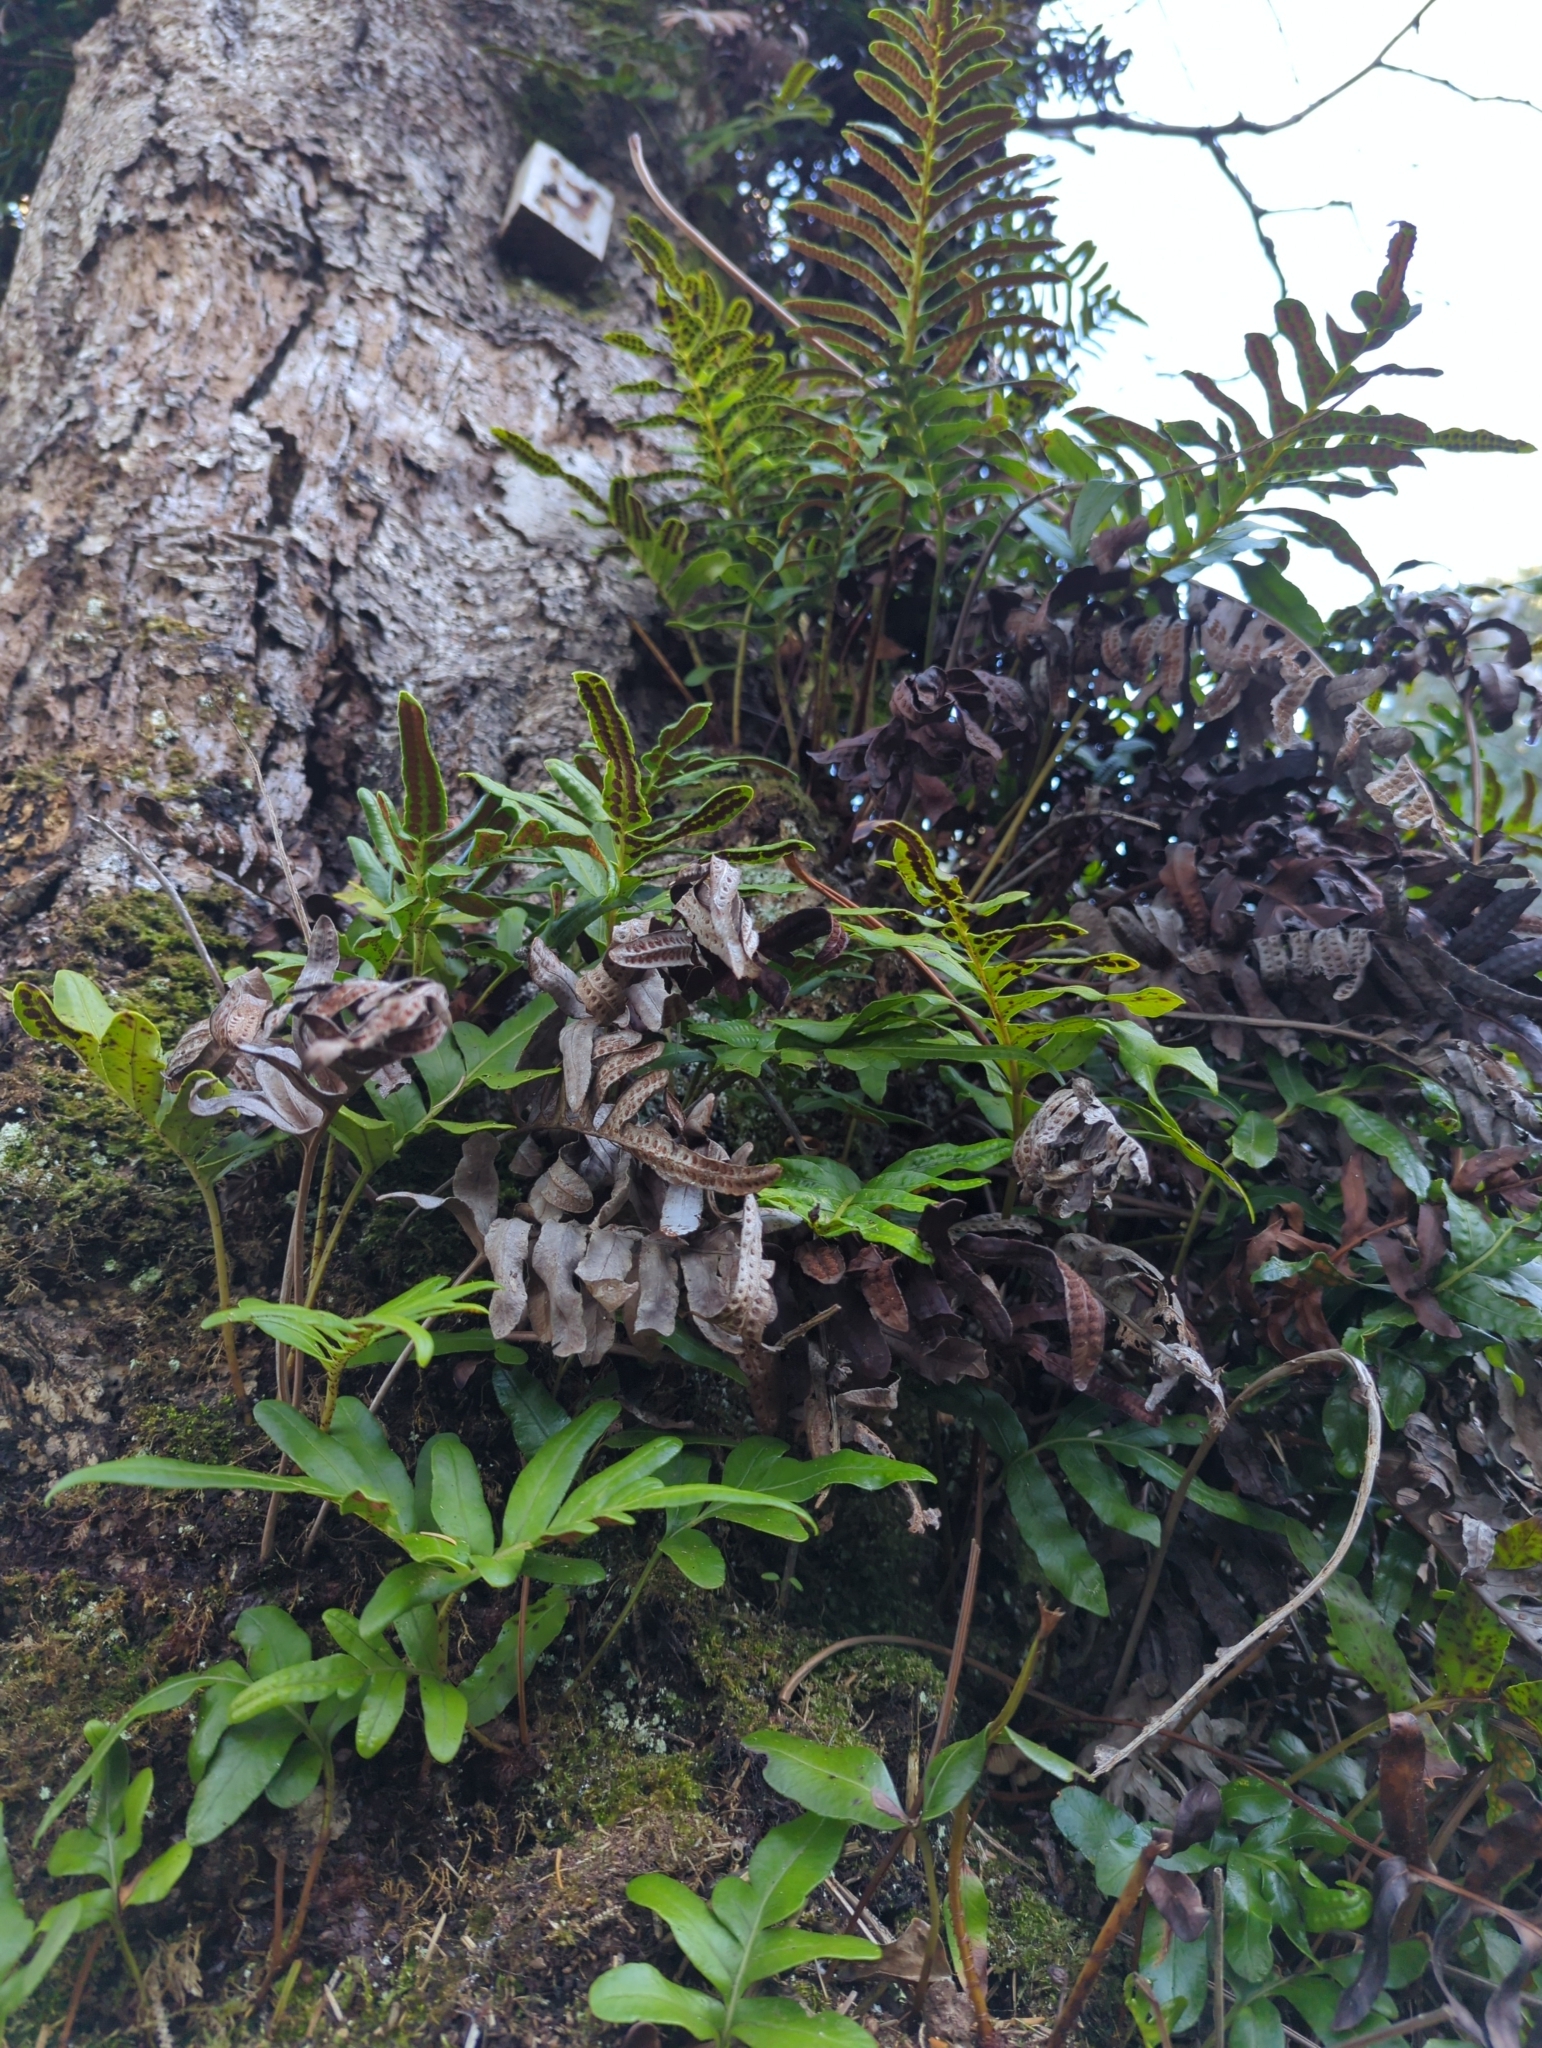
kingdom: Plantae
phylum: Tracheophyta
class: Polypodiopsida
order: Polypodiales
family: Polypodiaceae
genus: Polypodium
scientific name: Polypodium scouleri
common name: Scouler's polypody
